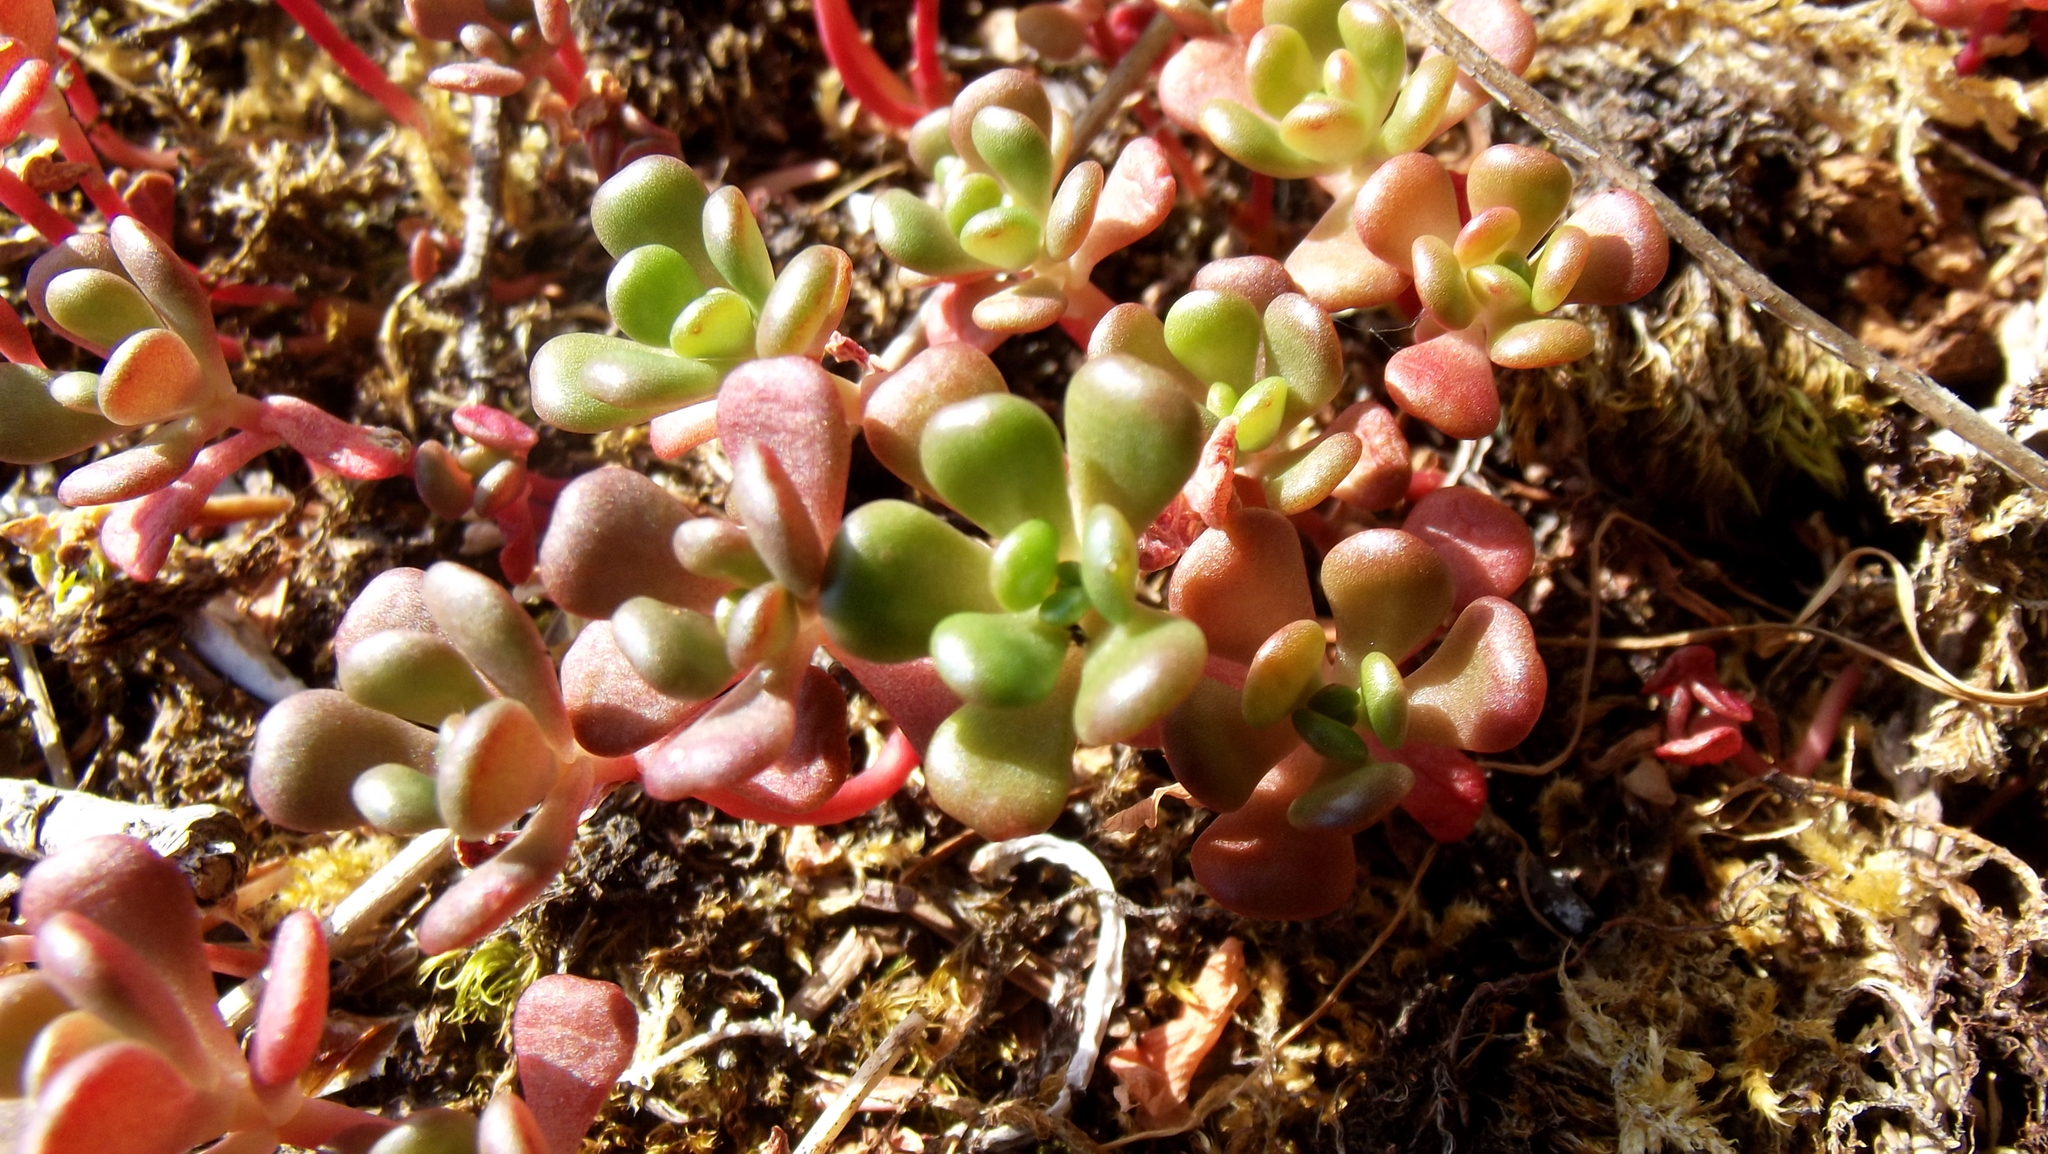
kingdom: Plantae
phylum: Tracheophyta
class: Magnoliopsida
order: Saxifragales
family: Crassulaceae
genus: Sedum
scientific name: Sedum oreganum
